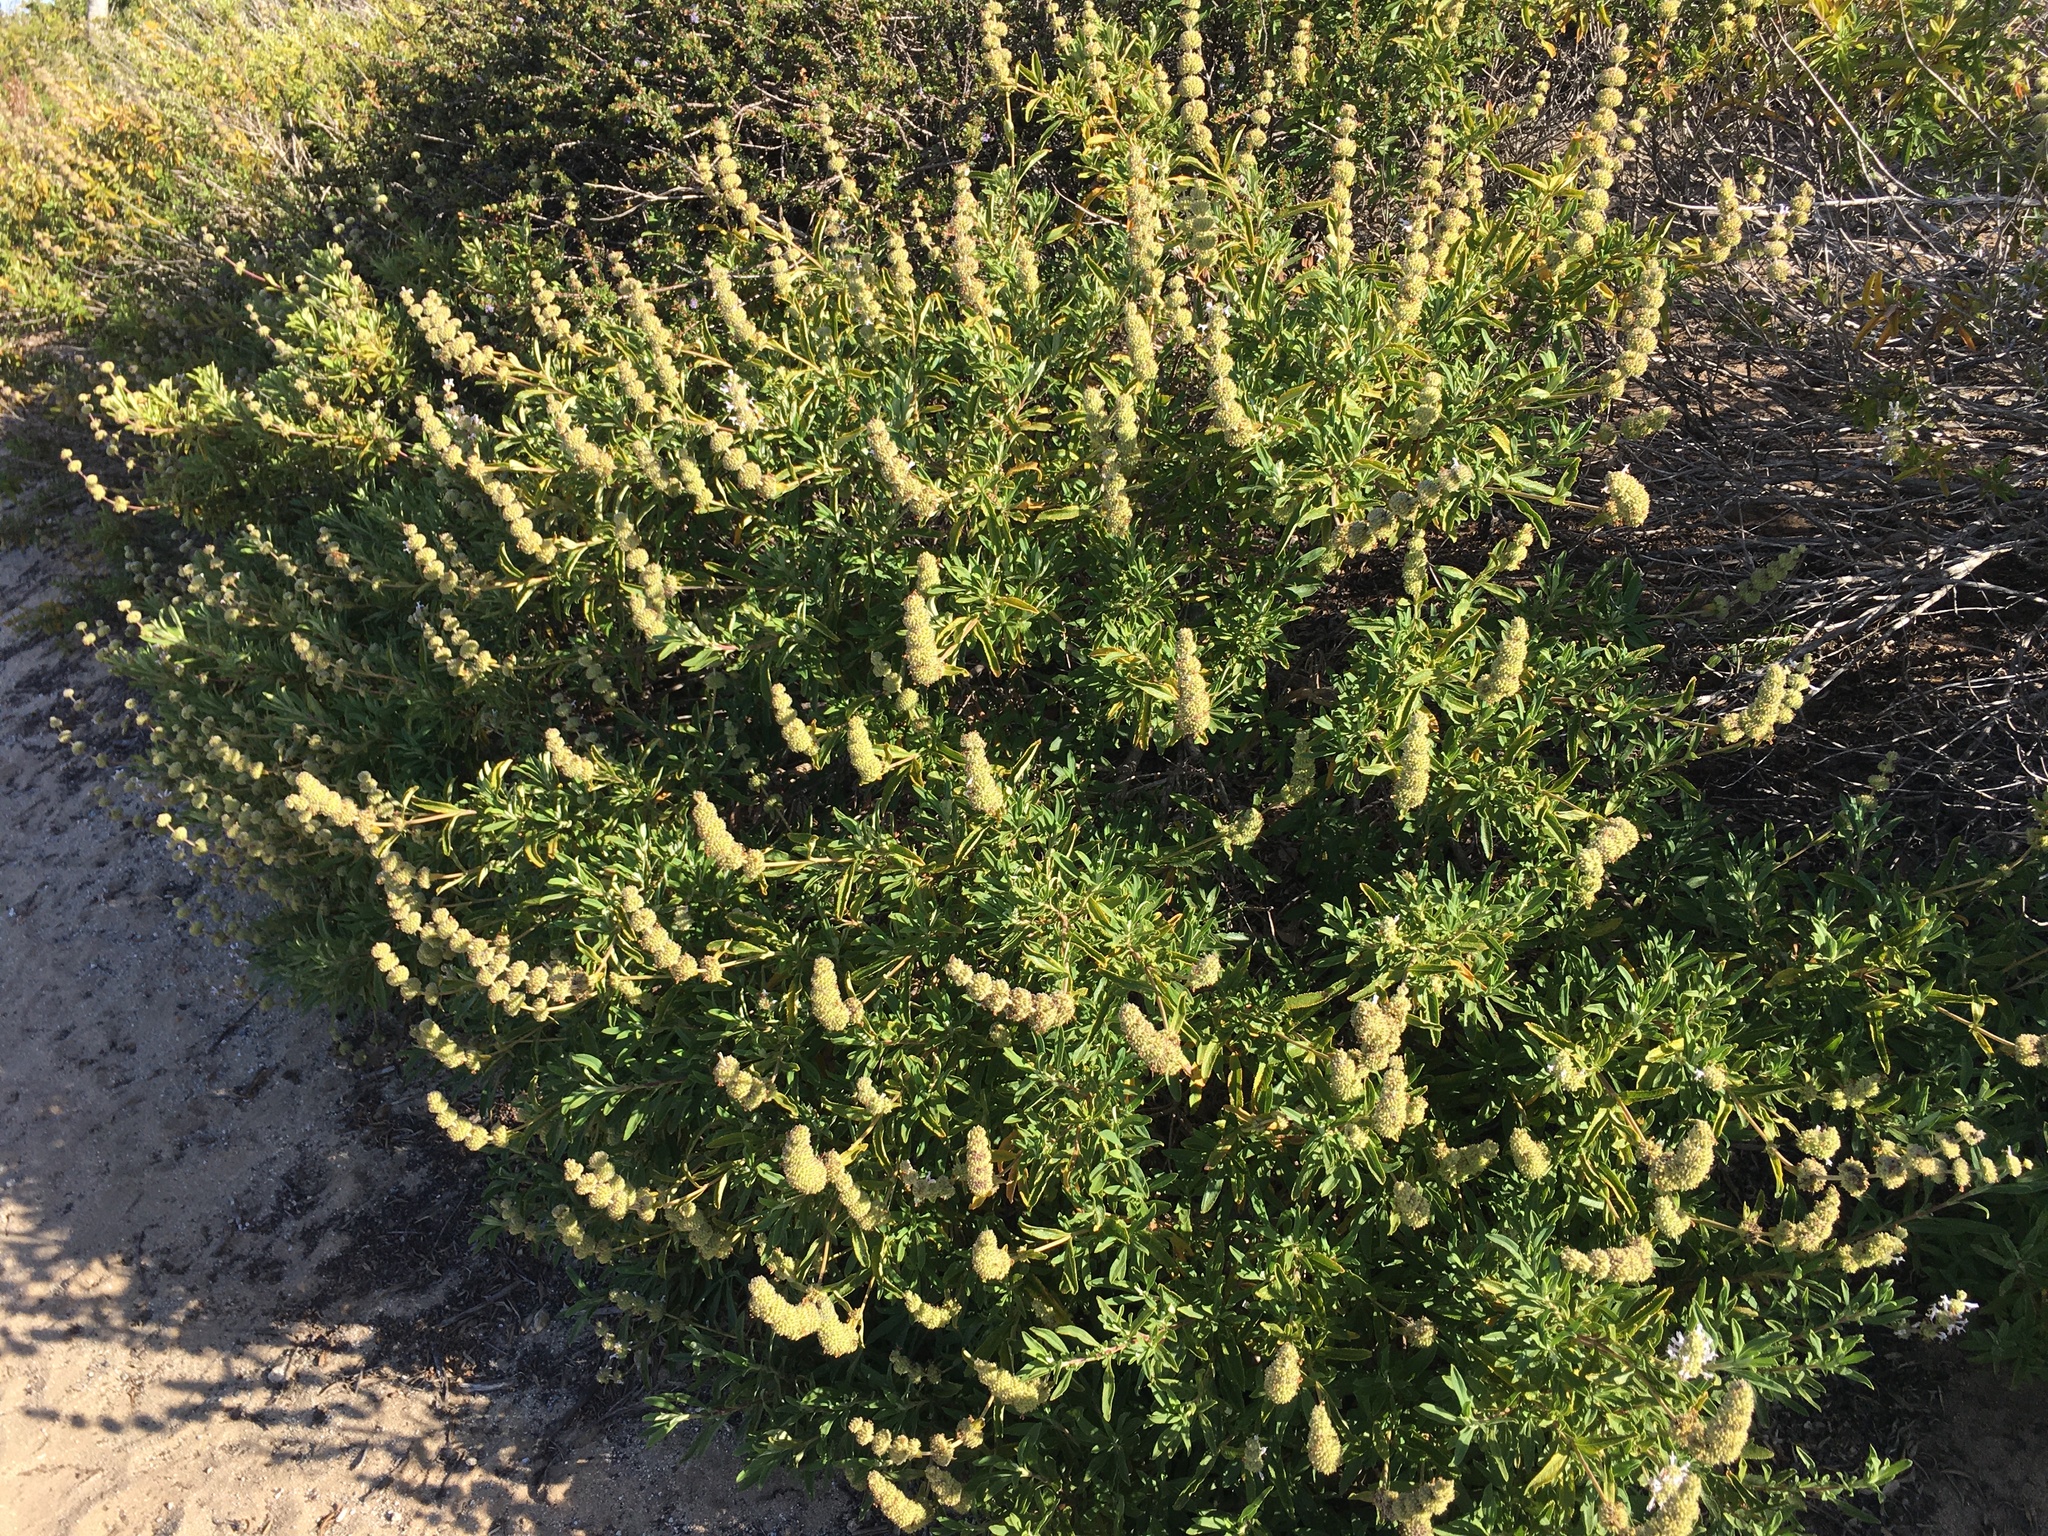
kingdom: Plantae
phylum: Tracheophyta
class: Magnoliopsida
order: Lamiales
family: Lamiaceae
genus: Salvia
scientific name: Salvia mellifera
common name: Black sage
